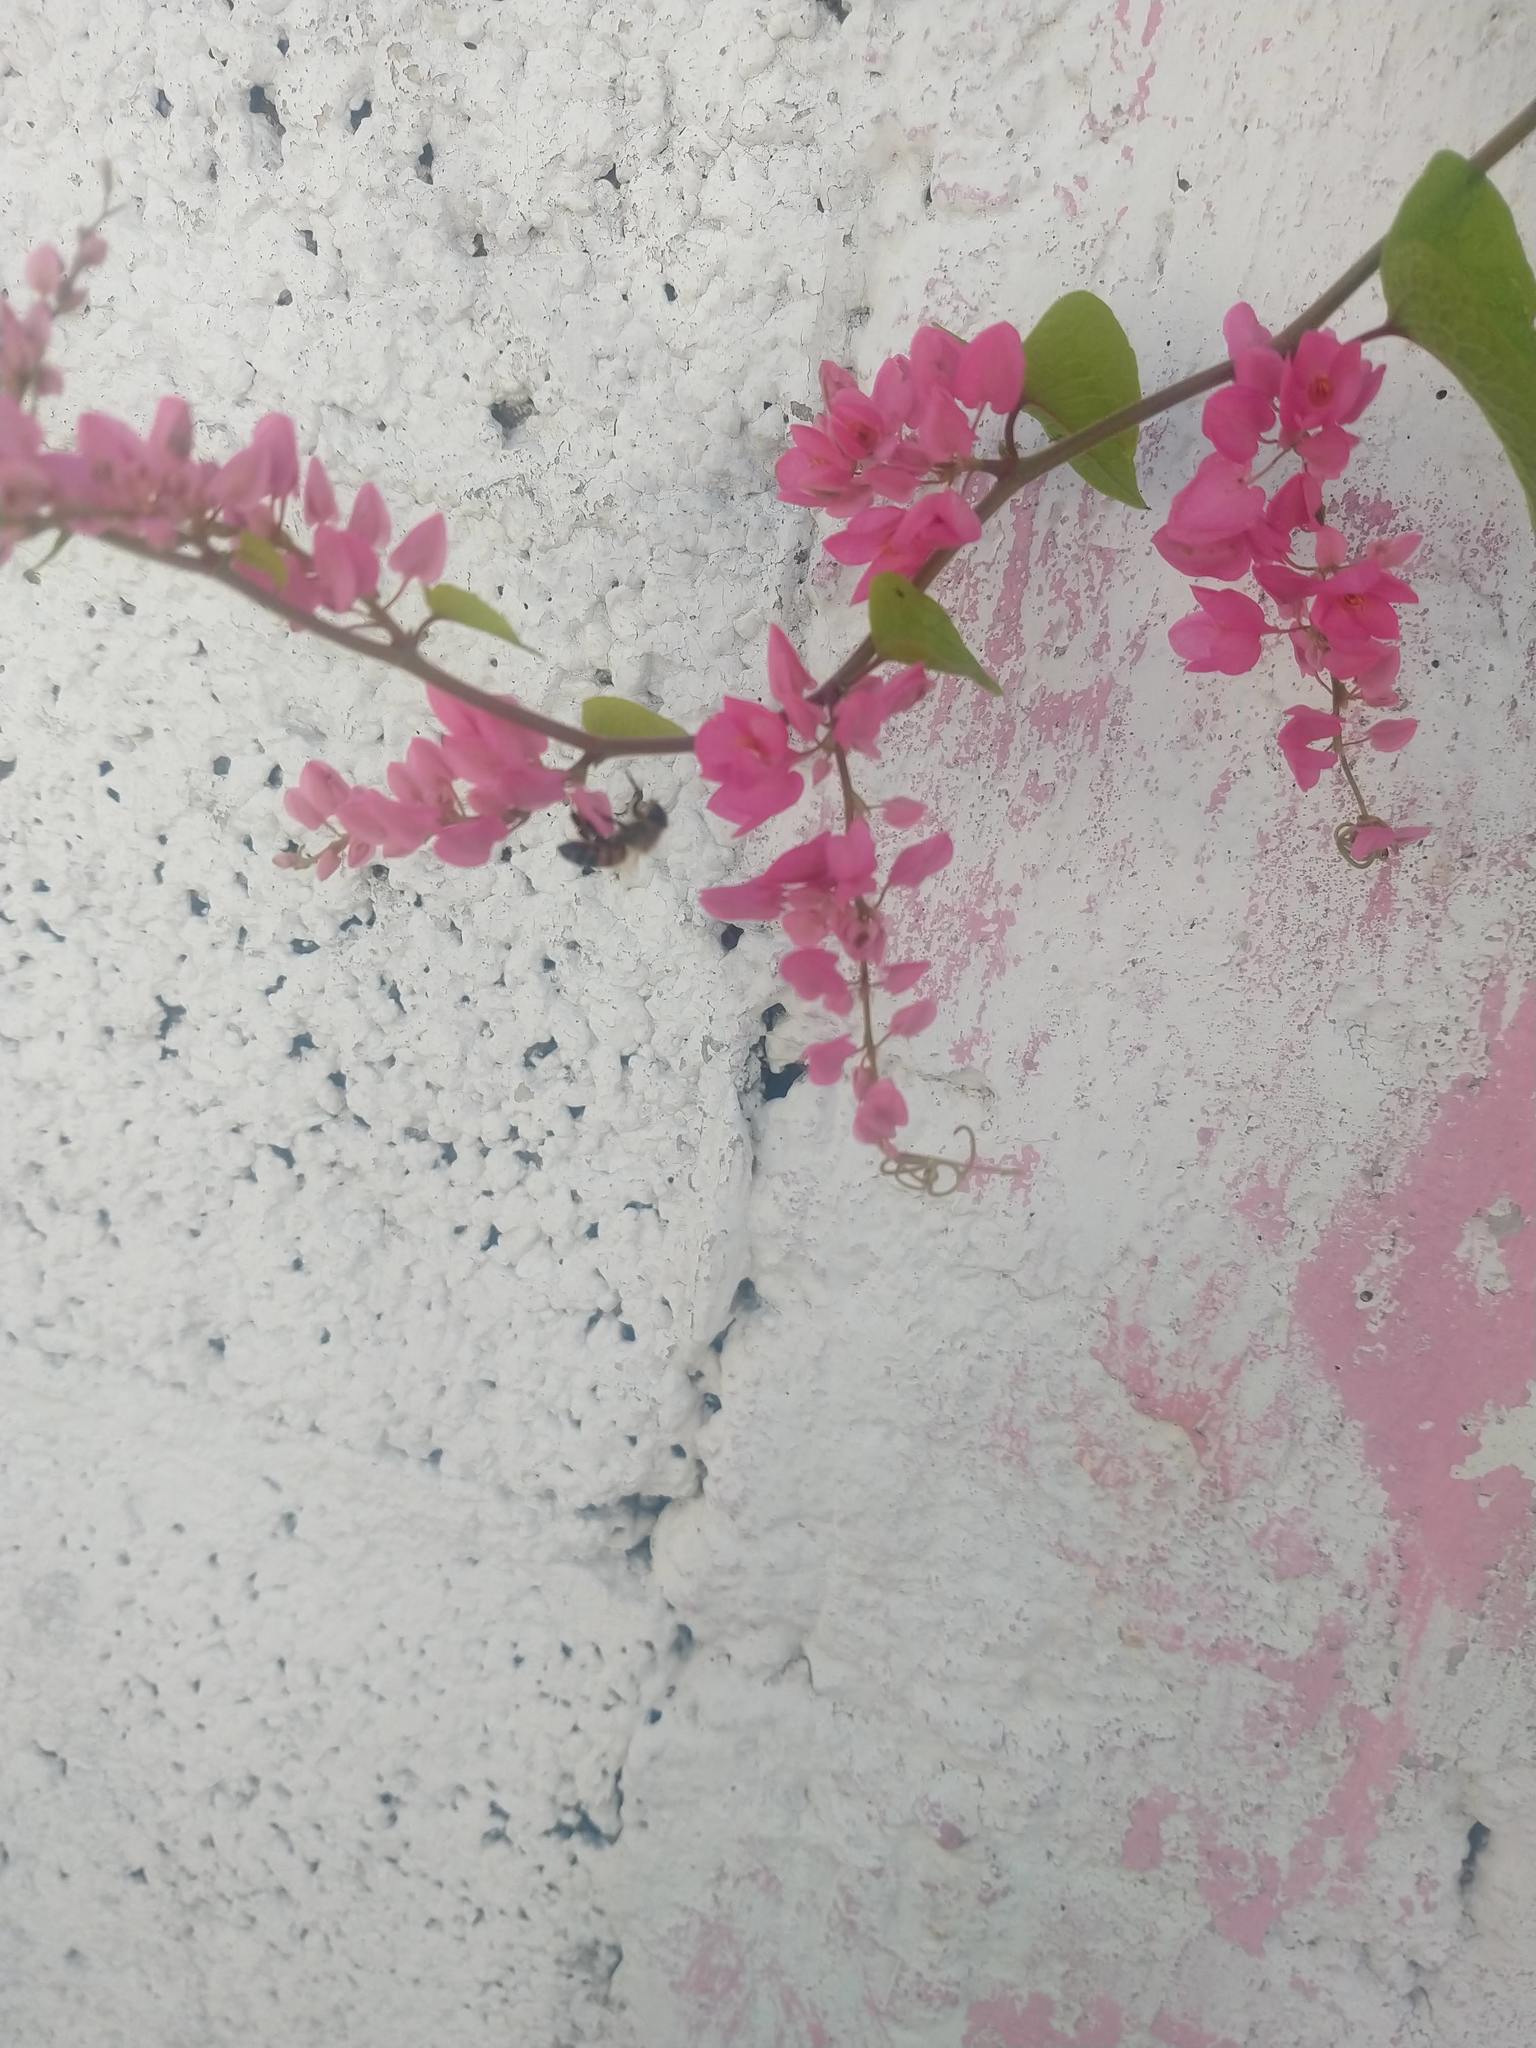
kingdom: Plantae
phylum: Tracheophyta
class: Magnoliopsida
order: Caryophyllales
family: Polygonaceae
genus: Antigonon
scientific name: Antigonon leptopus
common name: Coral vine
